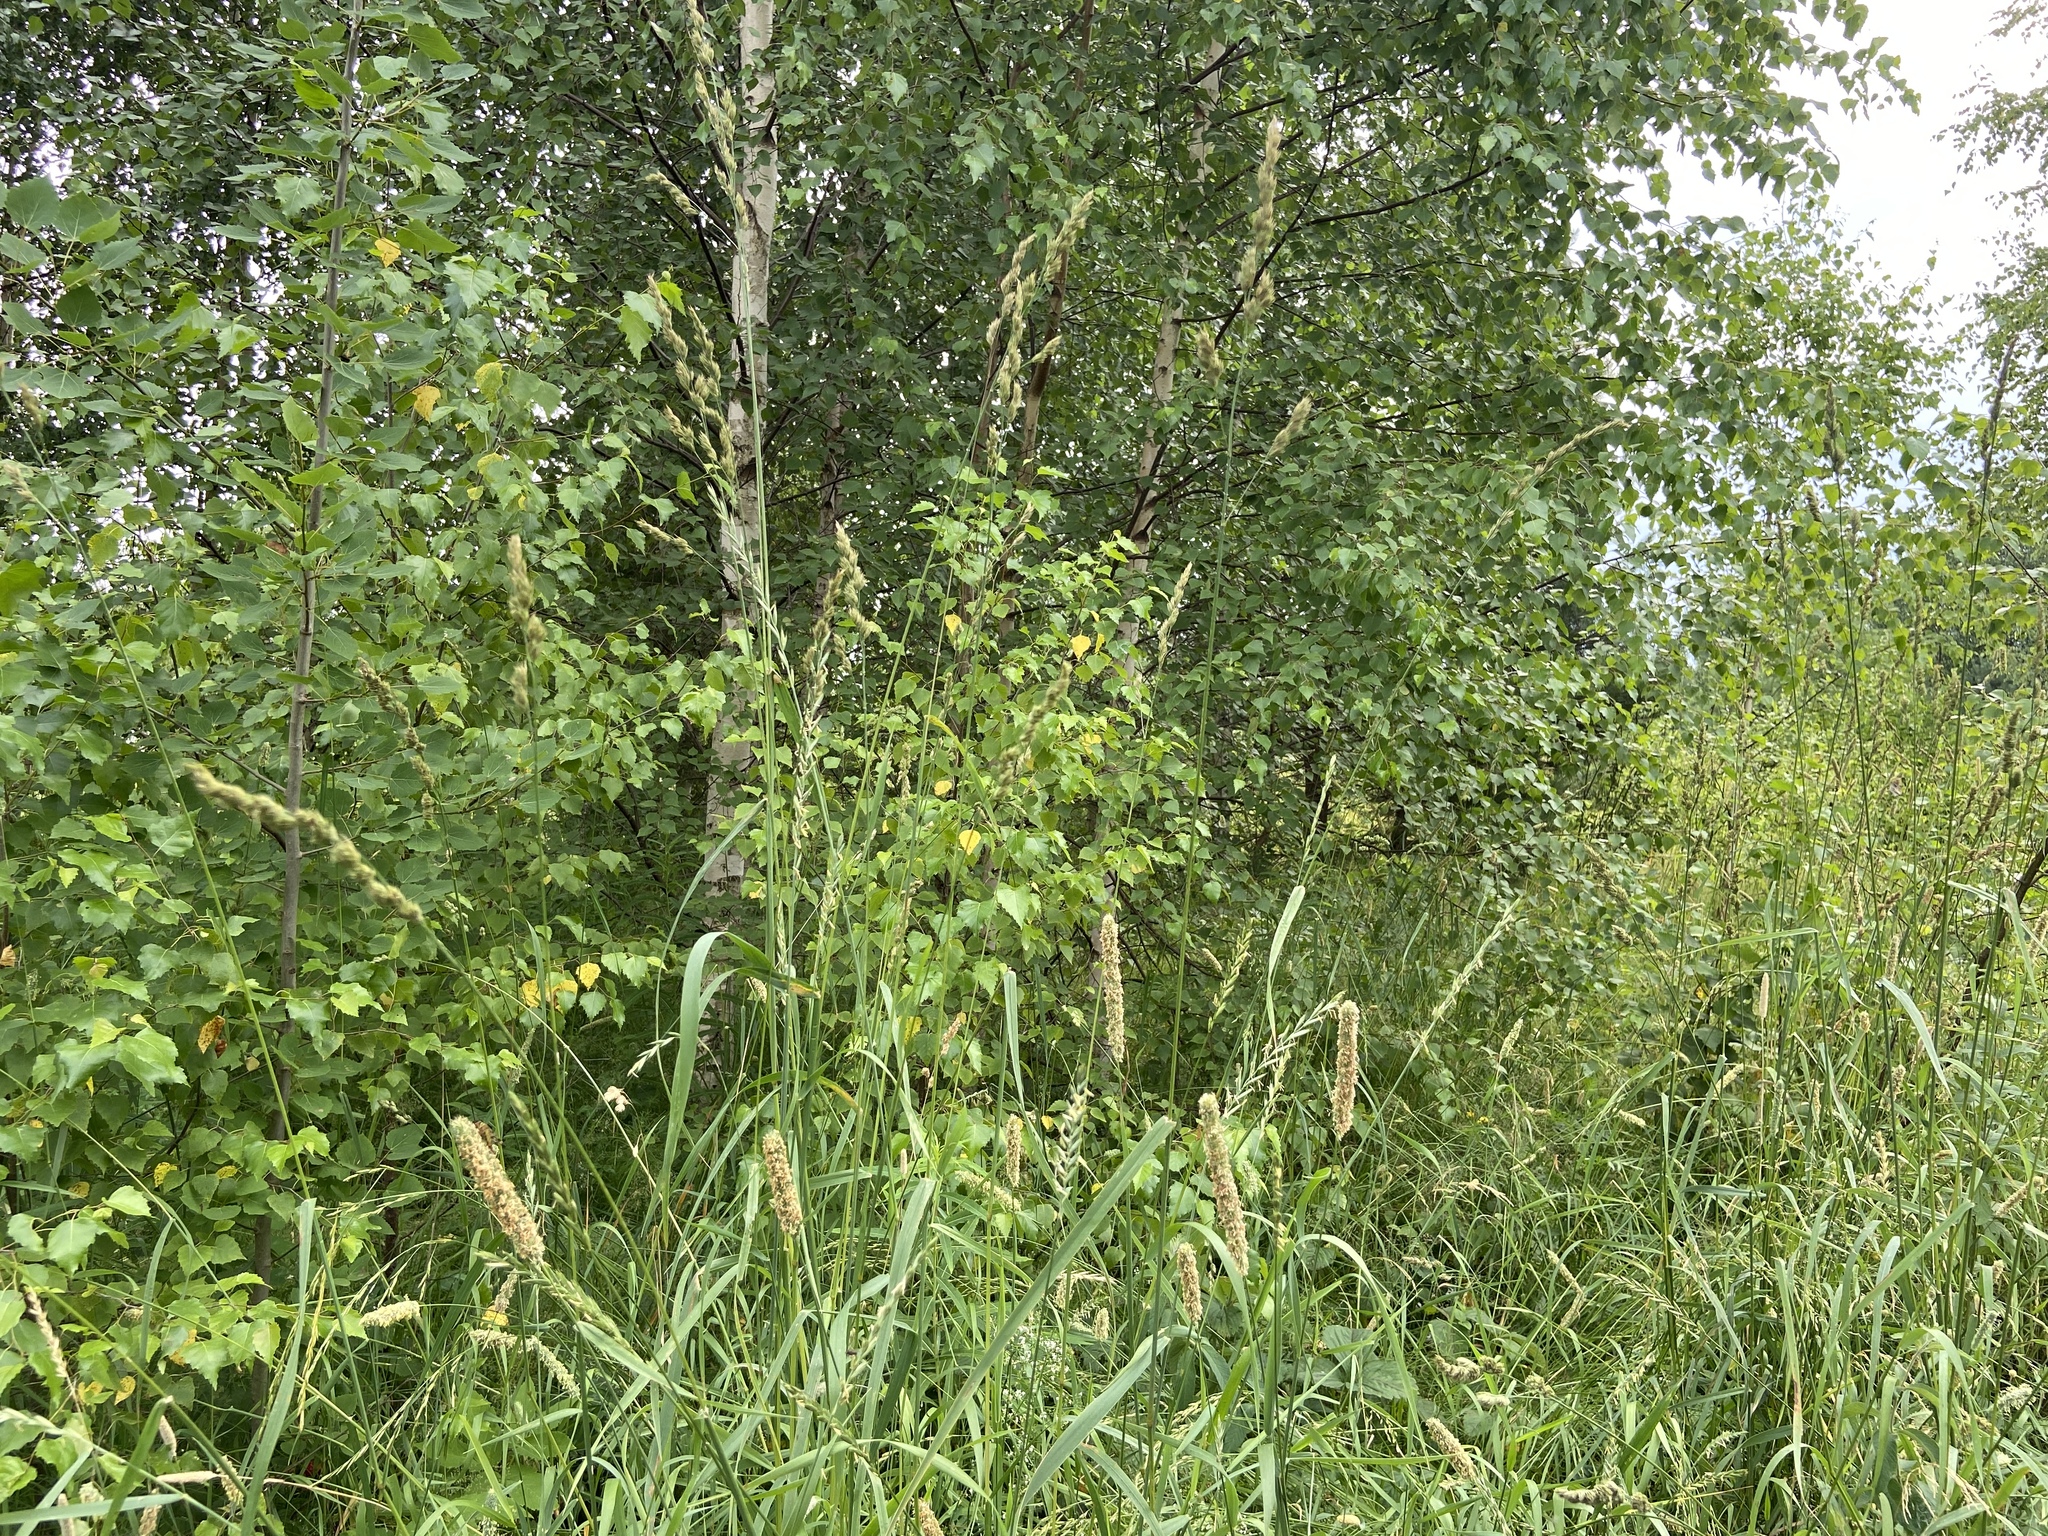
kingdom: Plantae
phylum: Tracheophyta
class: Liliopsida
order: Poales
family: Poaceae
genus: Phleum
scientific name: Phleum pratense
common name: Timothy grass
